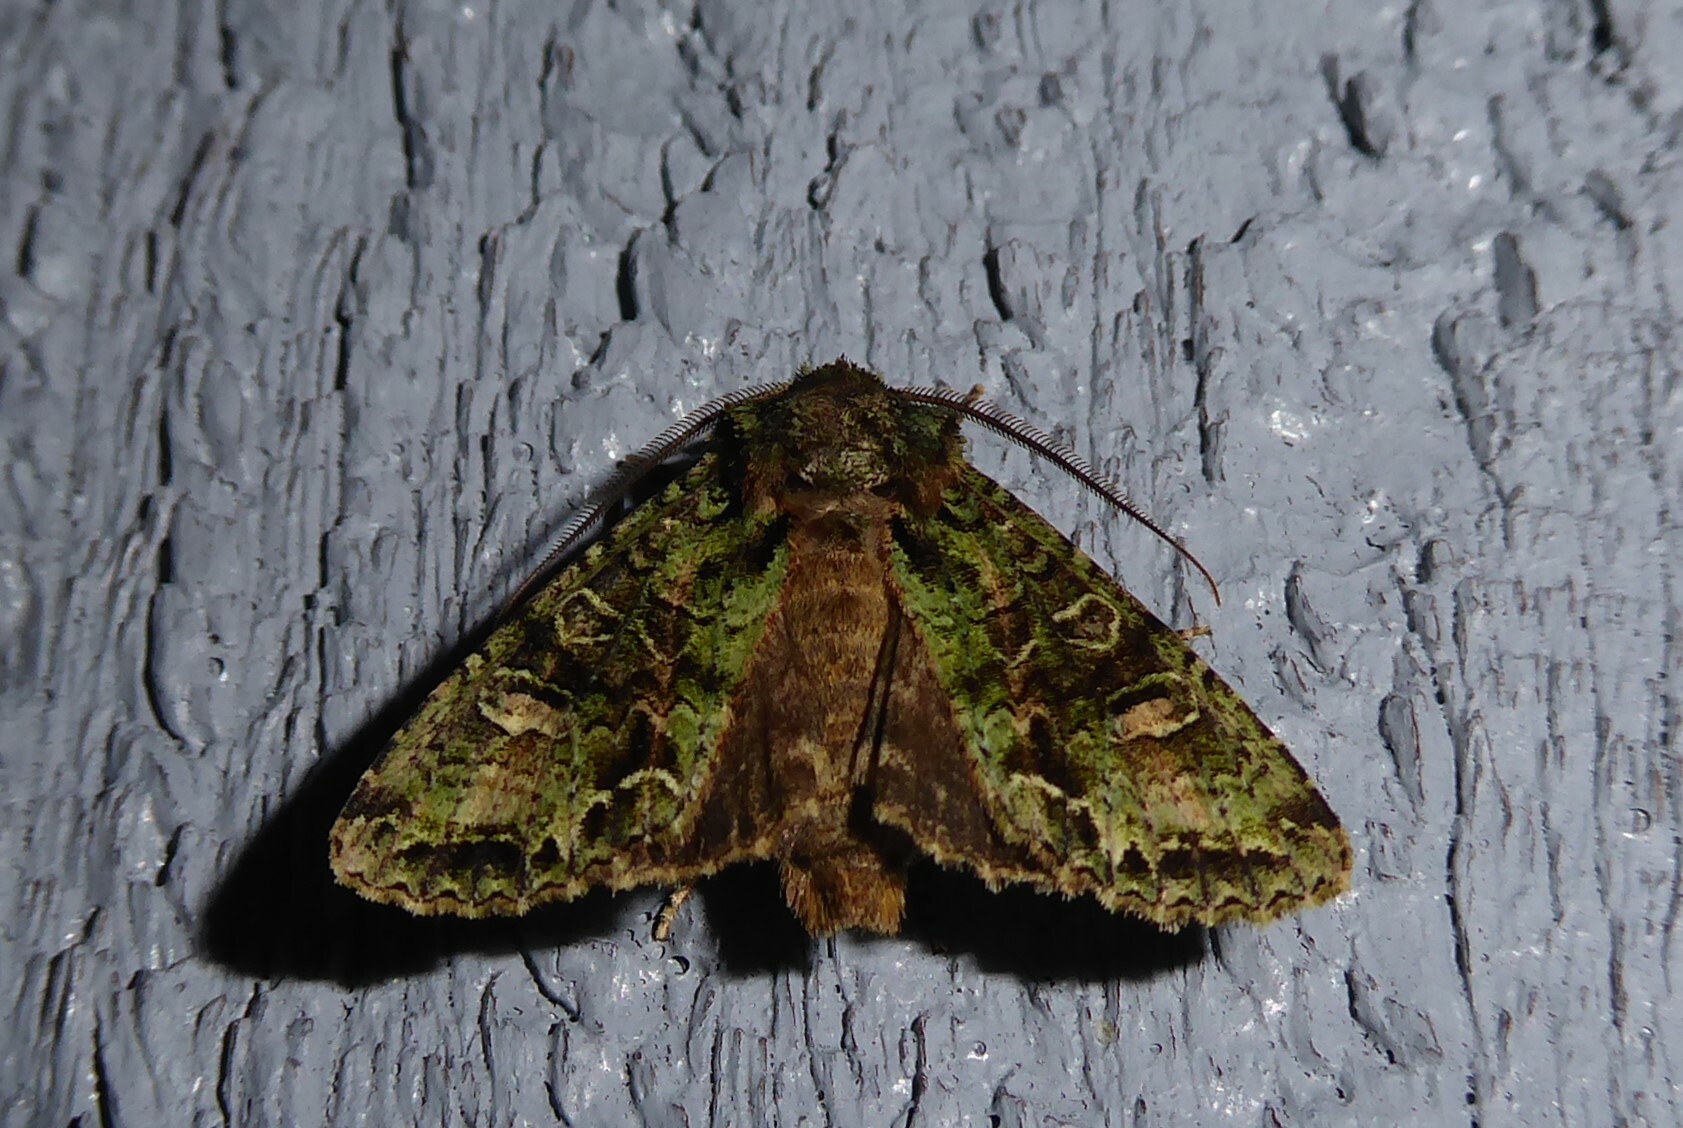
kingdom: Animalia
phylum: Arthropoda
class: Insecta
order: Lepidoptera
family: Noctuidae
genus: Ichneutica
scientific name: Ichneutica
